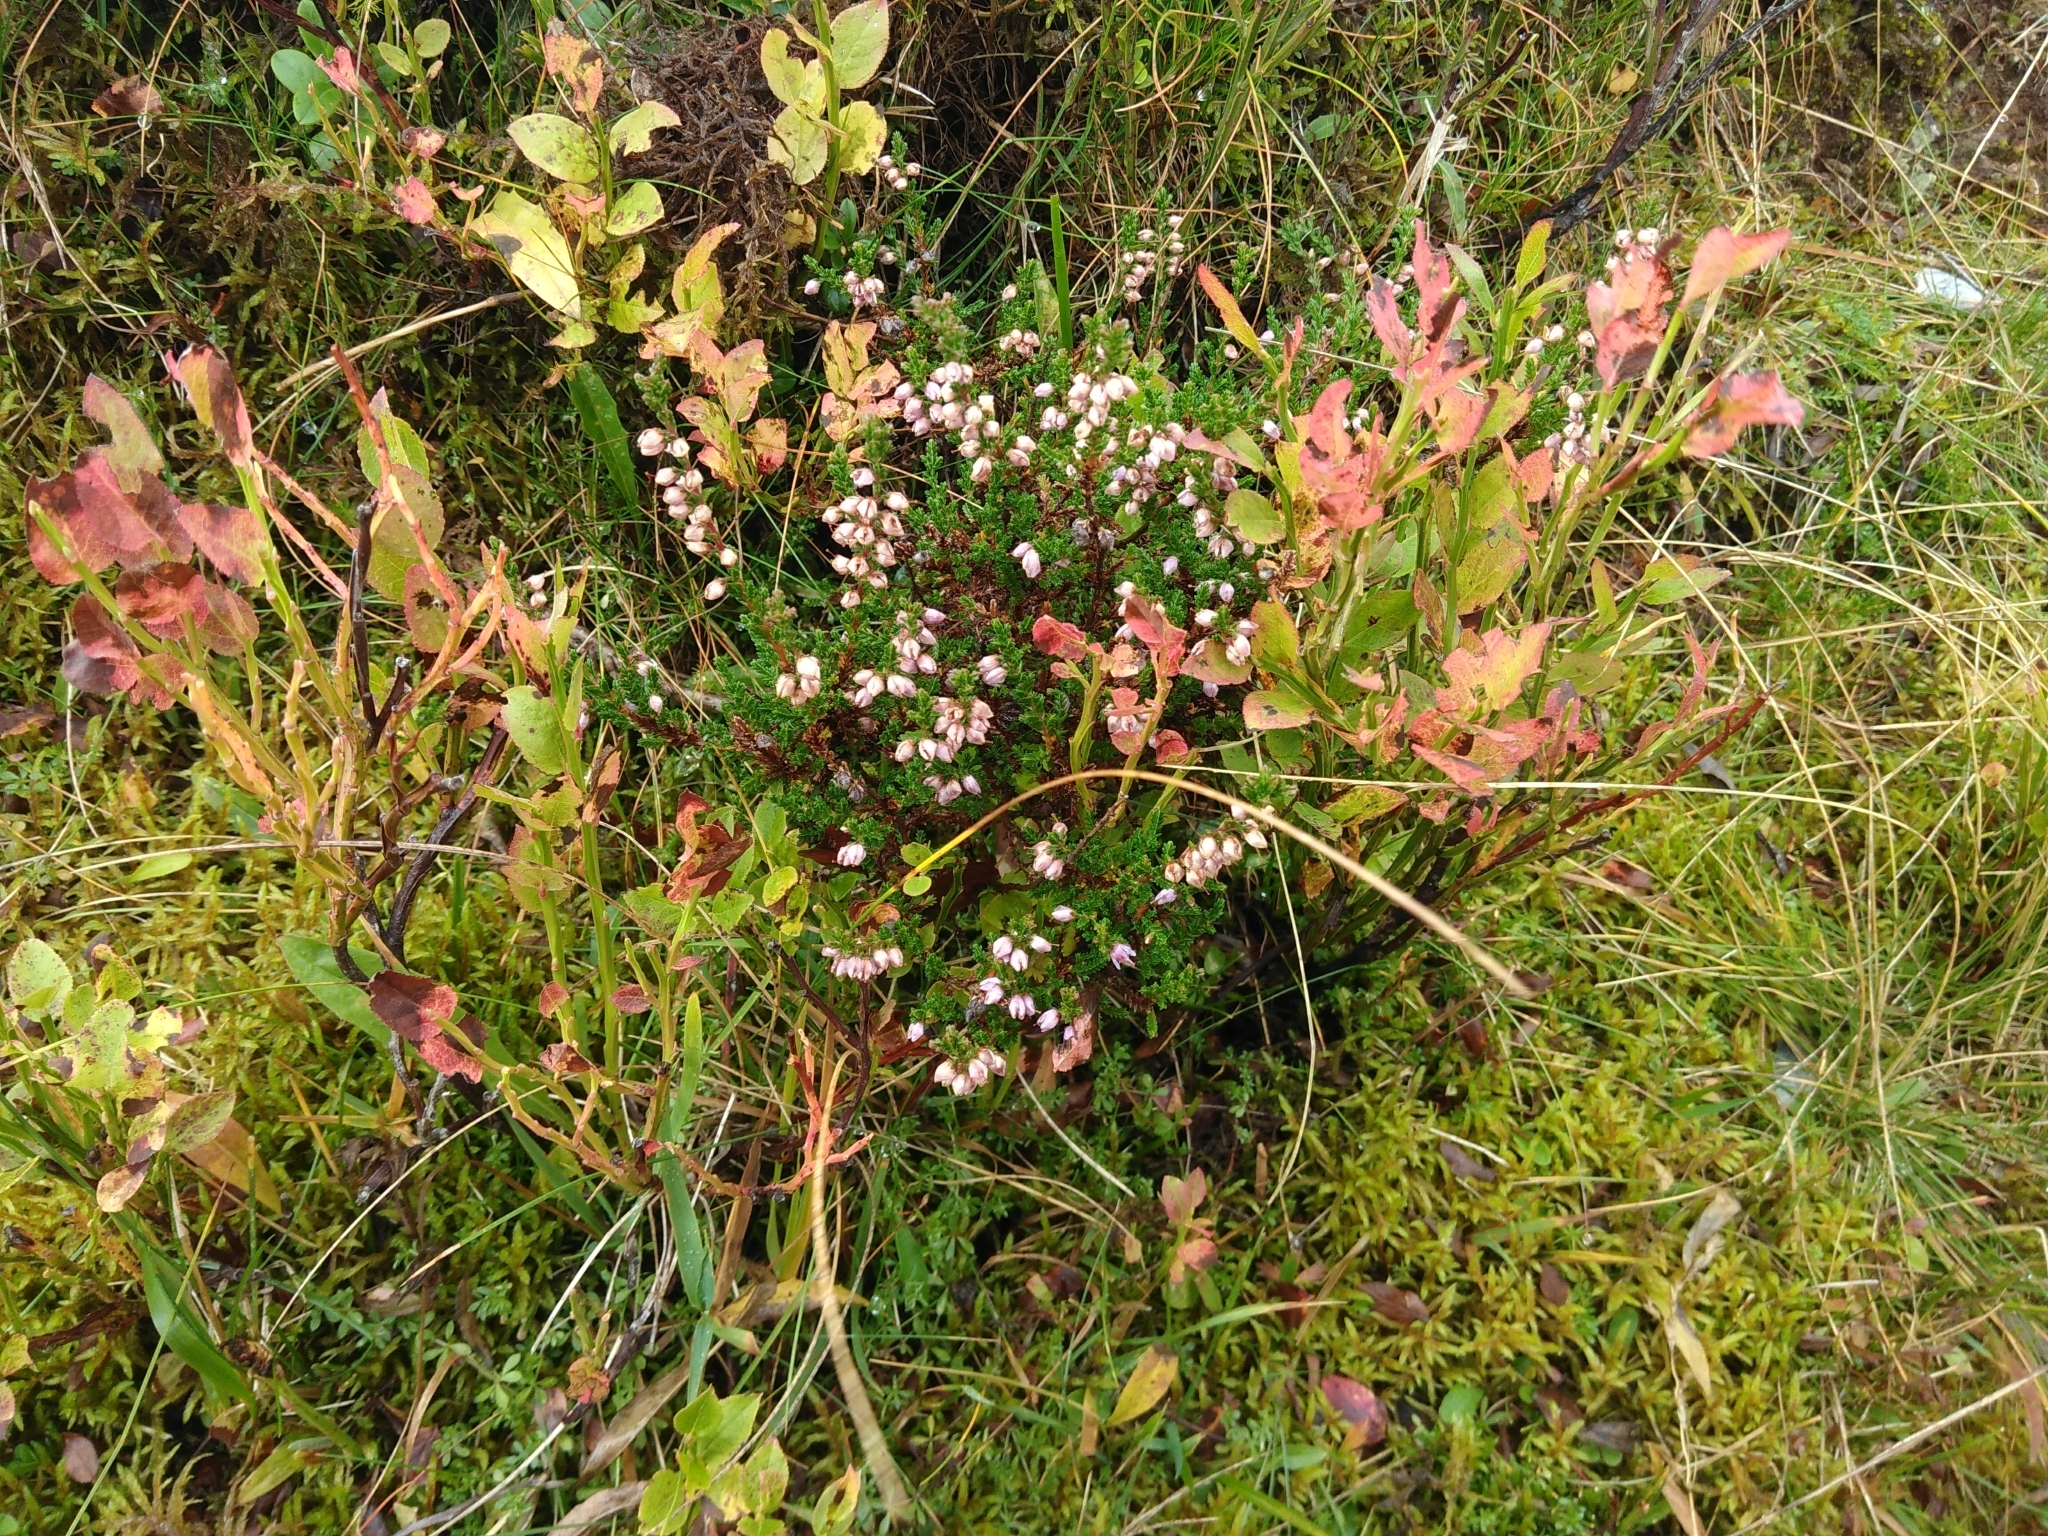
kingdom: Plantae
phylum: Tracheophyta
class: Magnoliopsida
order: Ericales
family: Ericaceae
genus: Calluna
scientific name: Calluna vulgaris
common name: Heather
